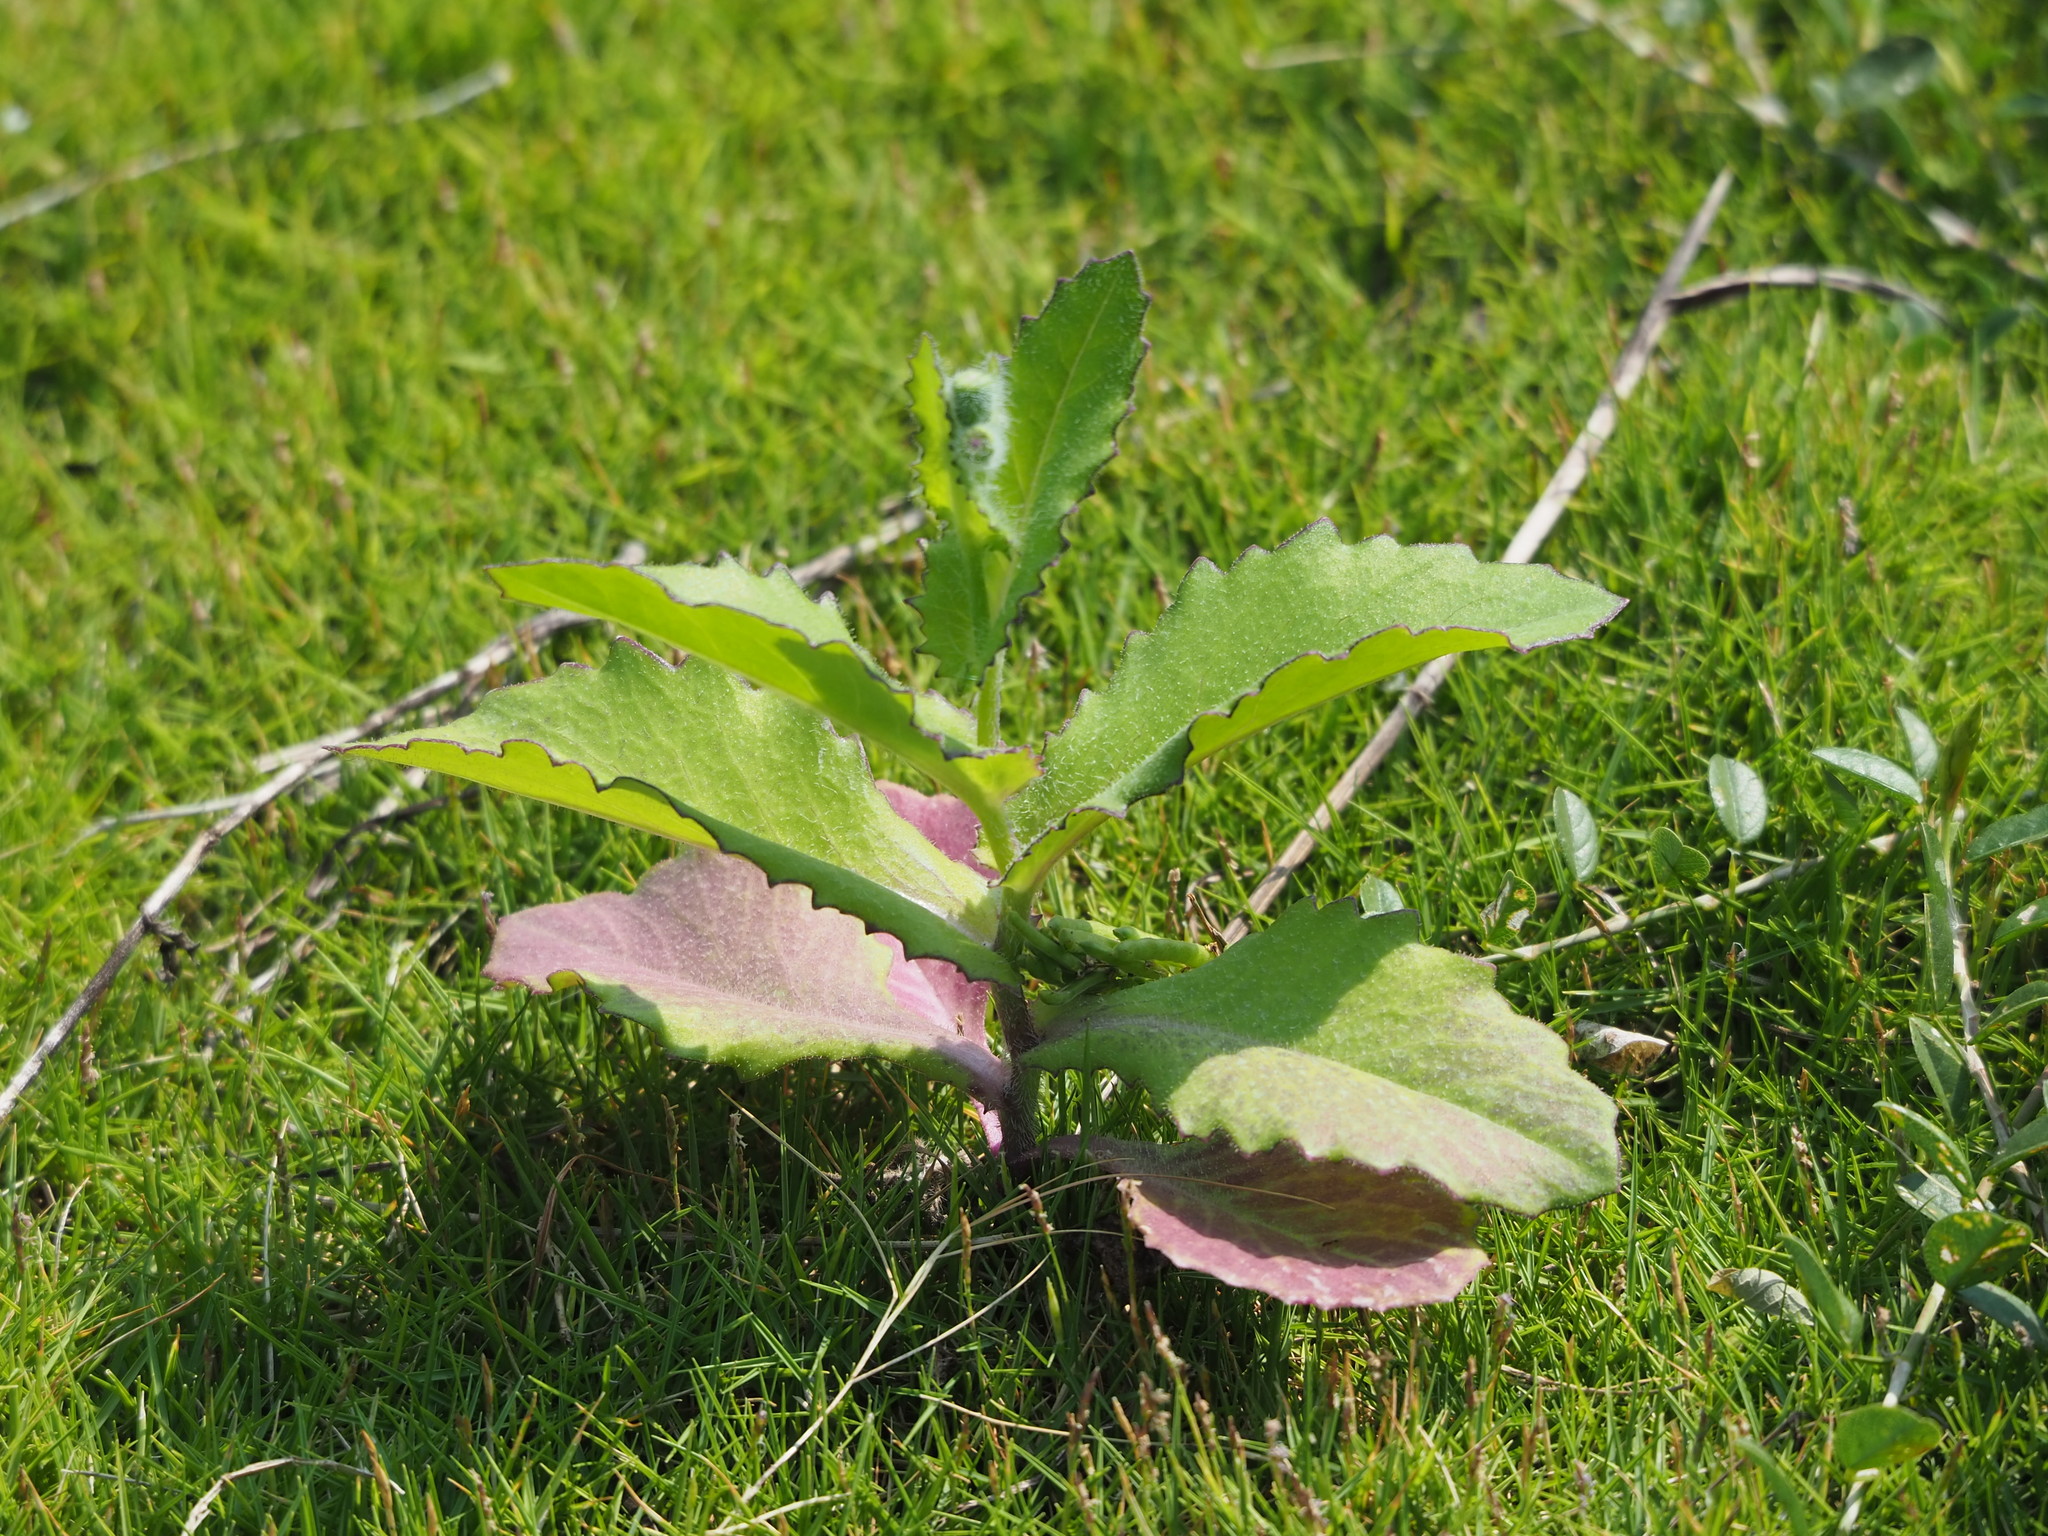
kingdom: Plantae
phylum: Tracheophyta
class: Magnoliopsida
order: Asterales
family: Asteraceae
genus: Emilia
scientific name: Emilia javanica
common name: Tassel-flower
